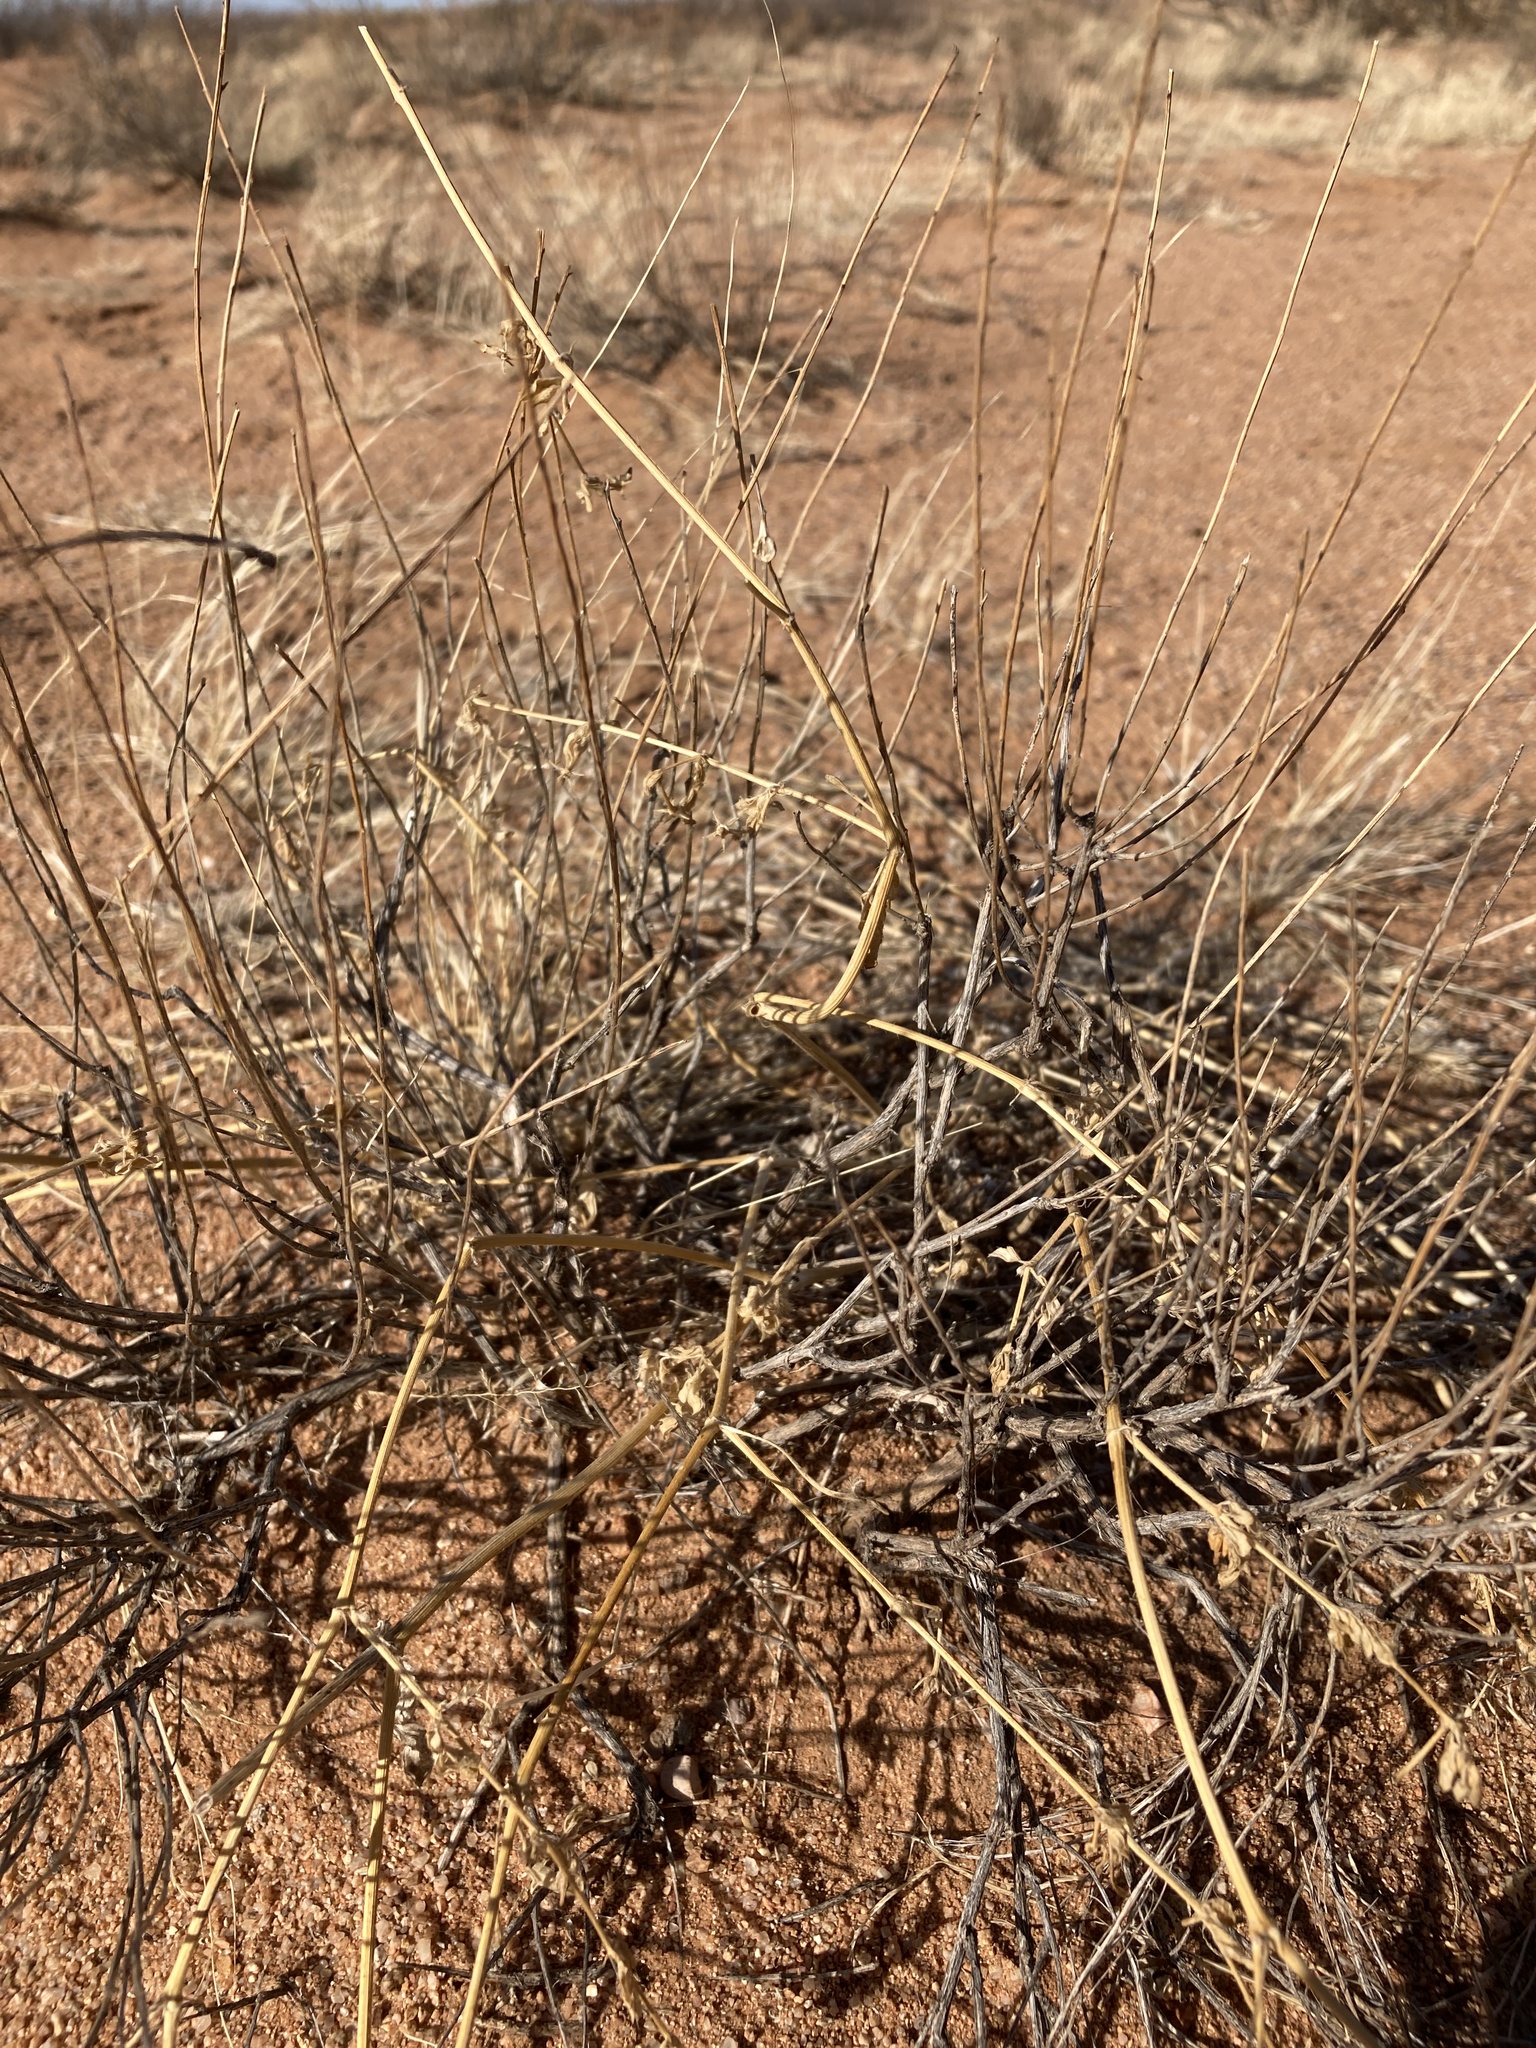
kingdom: Plantae
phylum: Tracheophyta
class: Magnoliopsida
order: Zygophyllales
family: Zygophyllaceae
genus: Kallstroemia
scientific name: Kallstroemia parviflora
